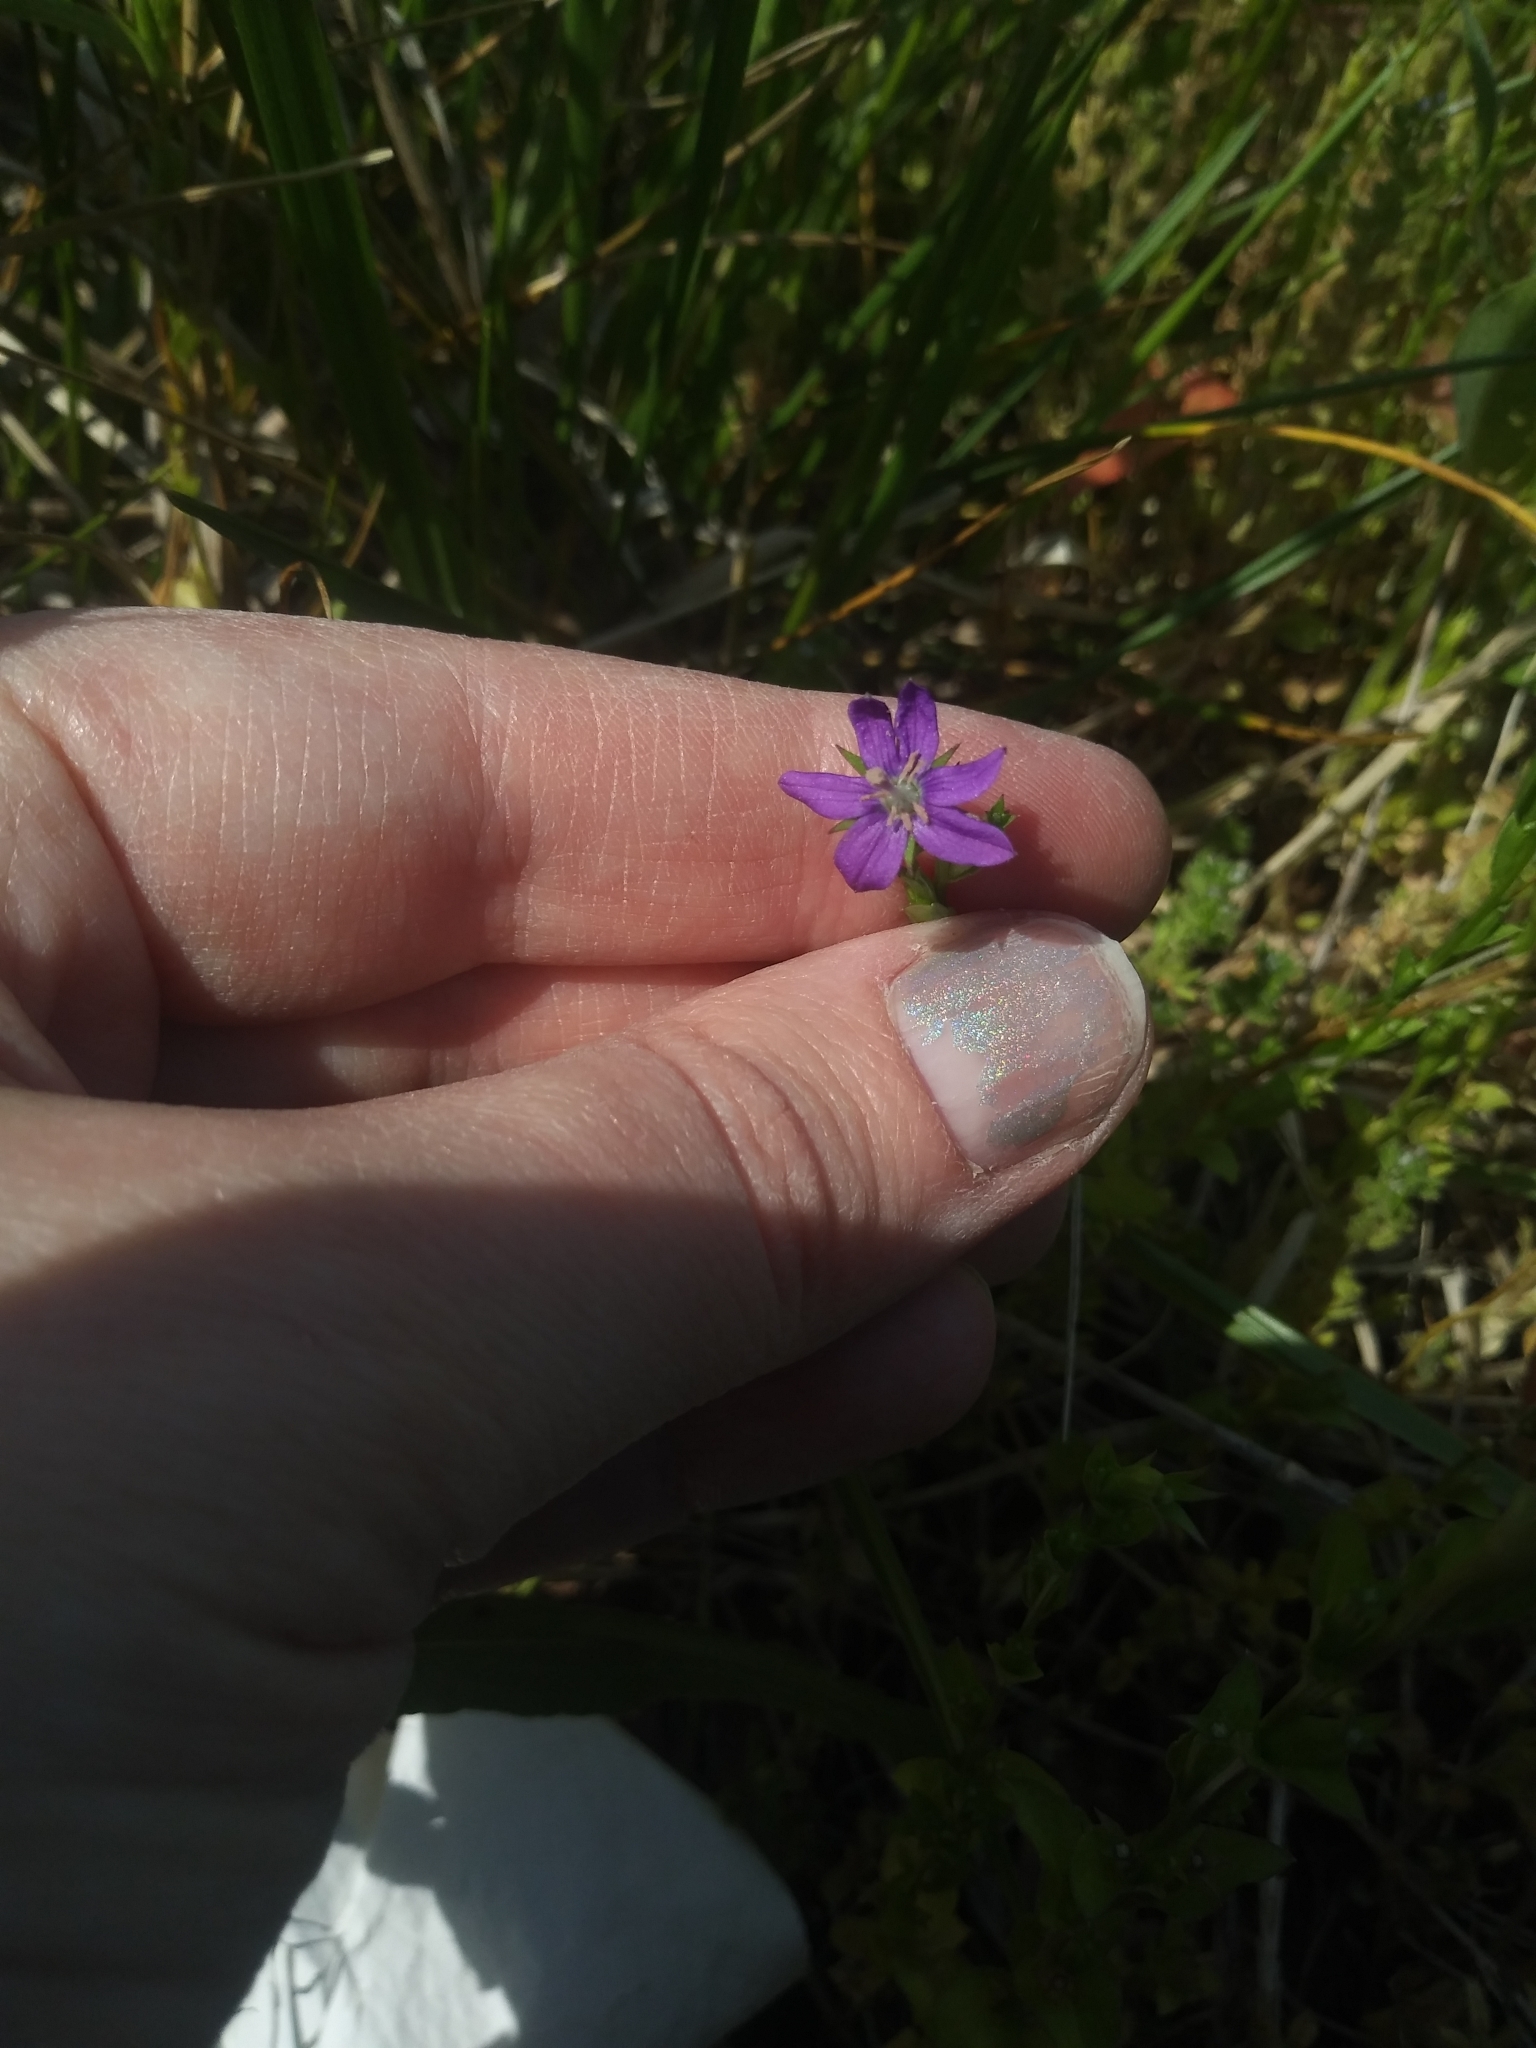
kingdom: Plantae
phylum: Tracheophyta
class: Magnoliopsida
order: Asterales
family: Campanulaceae
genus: Triodanis
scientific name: Triodanis perfoliata
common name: Clasping venus' looking-glass
